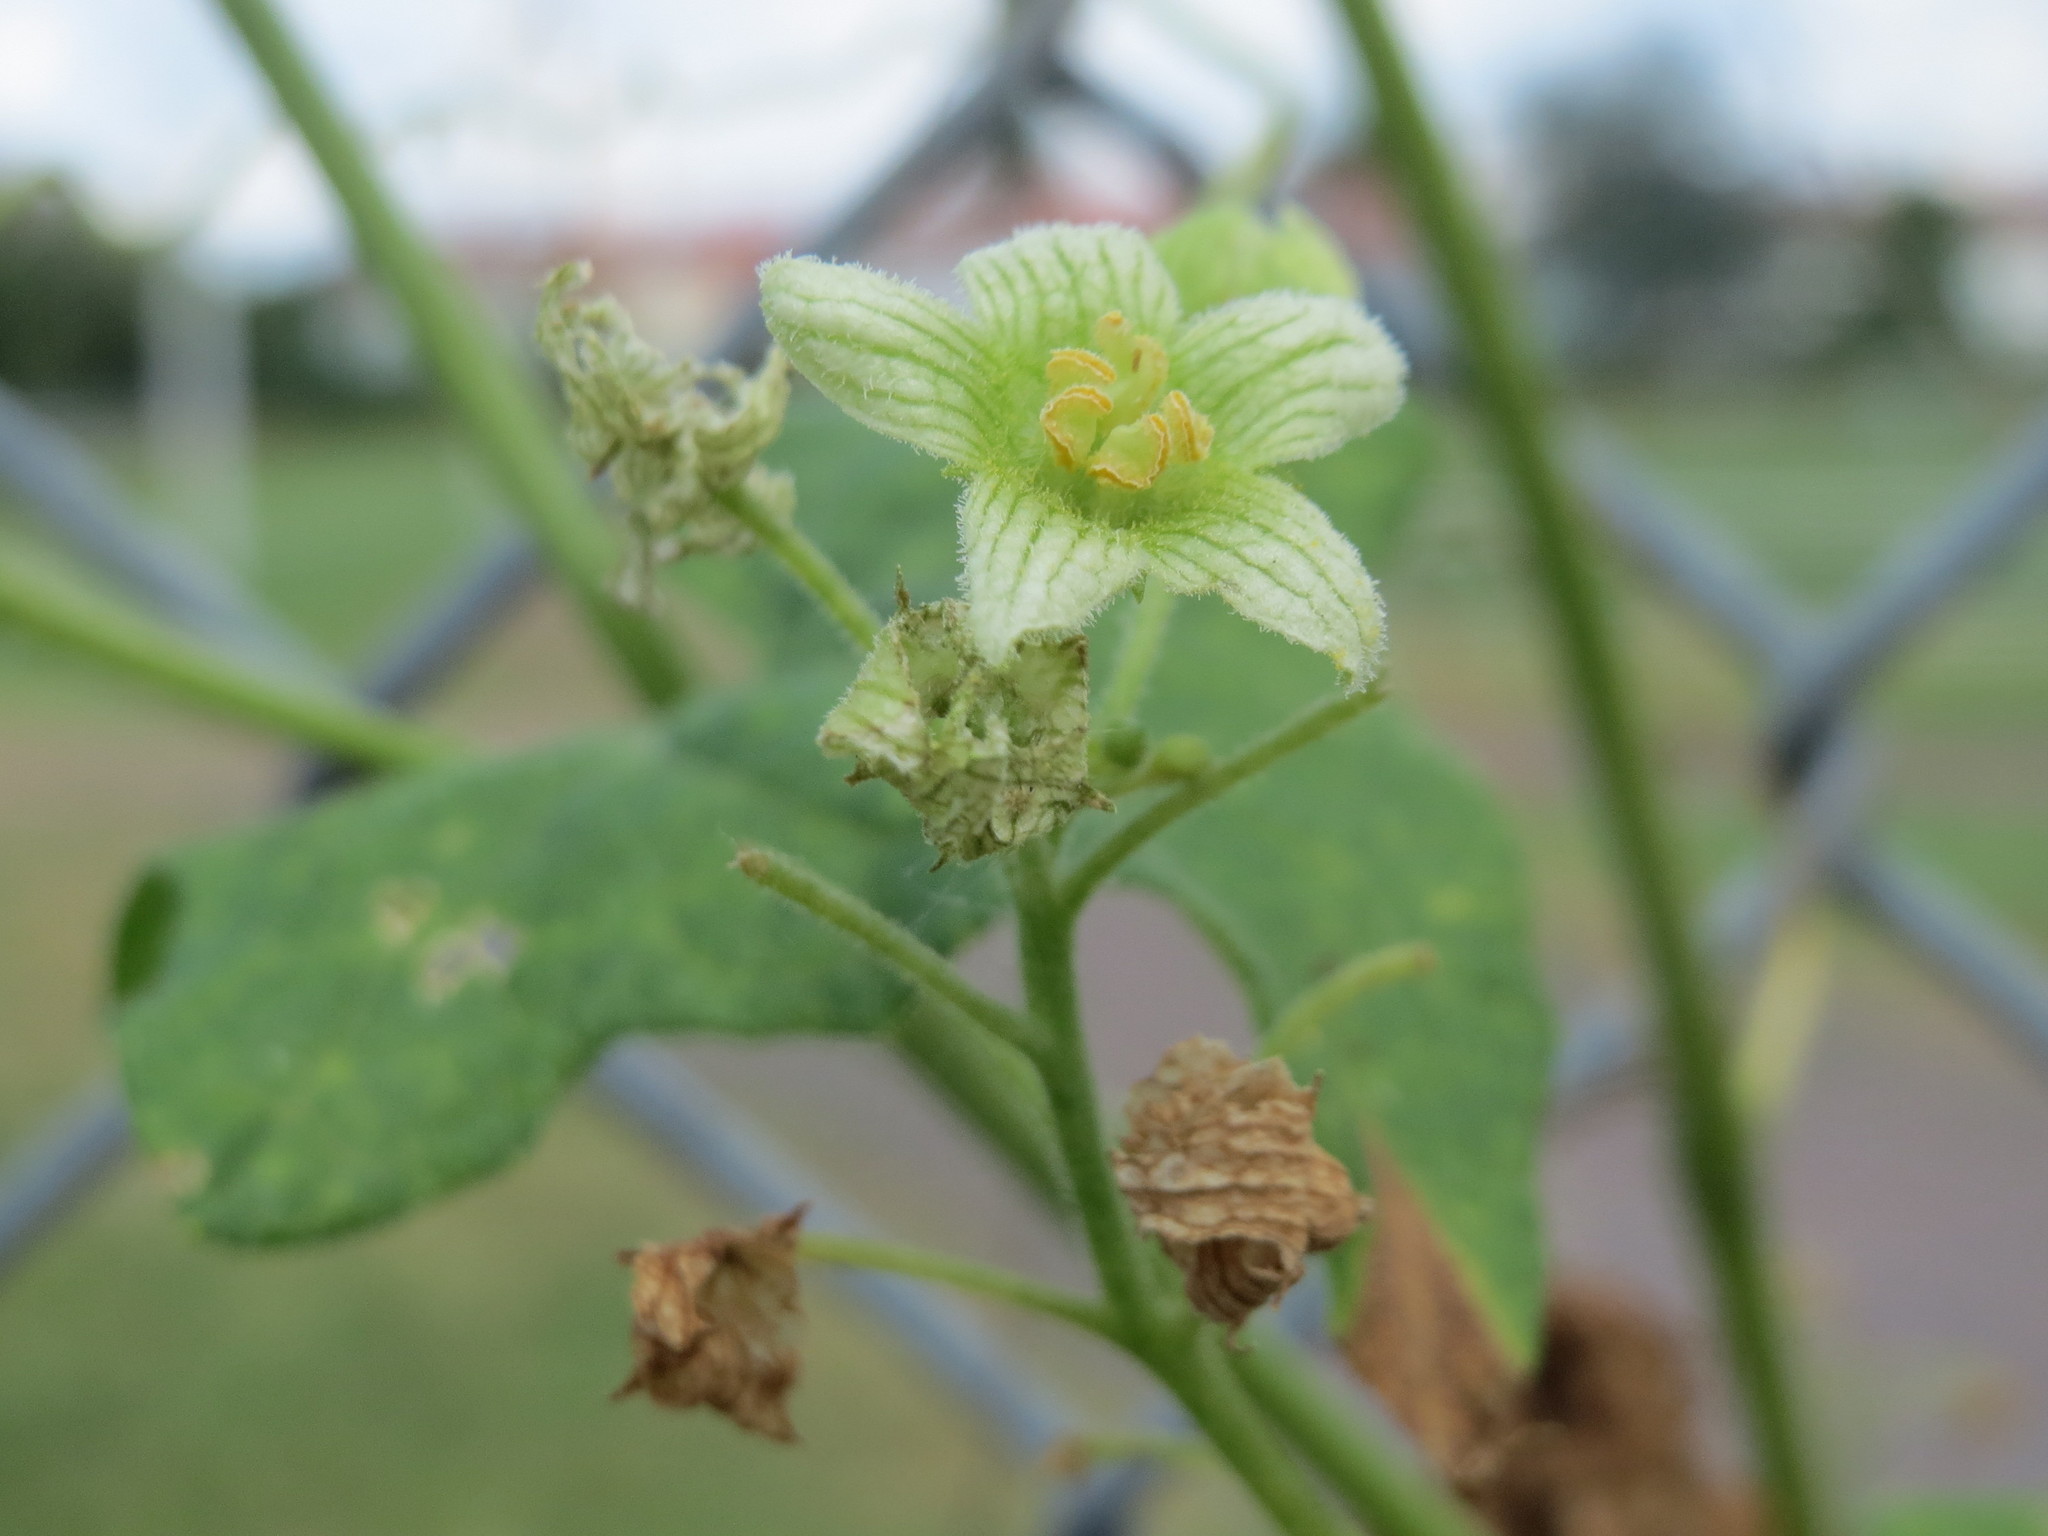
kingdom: Plantae
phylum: Tracheophyta
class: Magnoliopsida
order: Cucurbitales
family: Cucurbitaceae
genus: Bryonia
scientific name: Bryonia dioica
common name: White bryony
